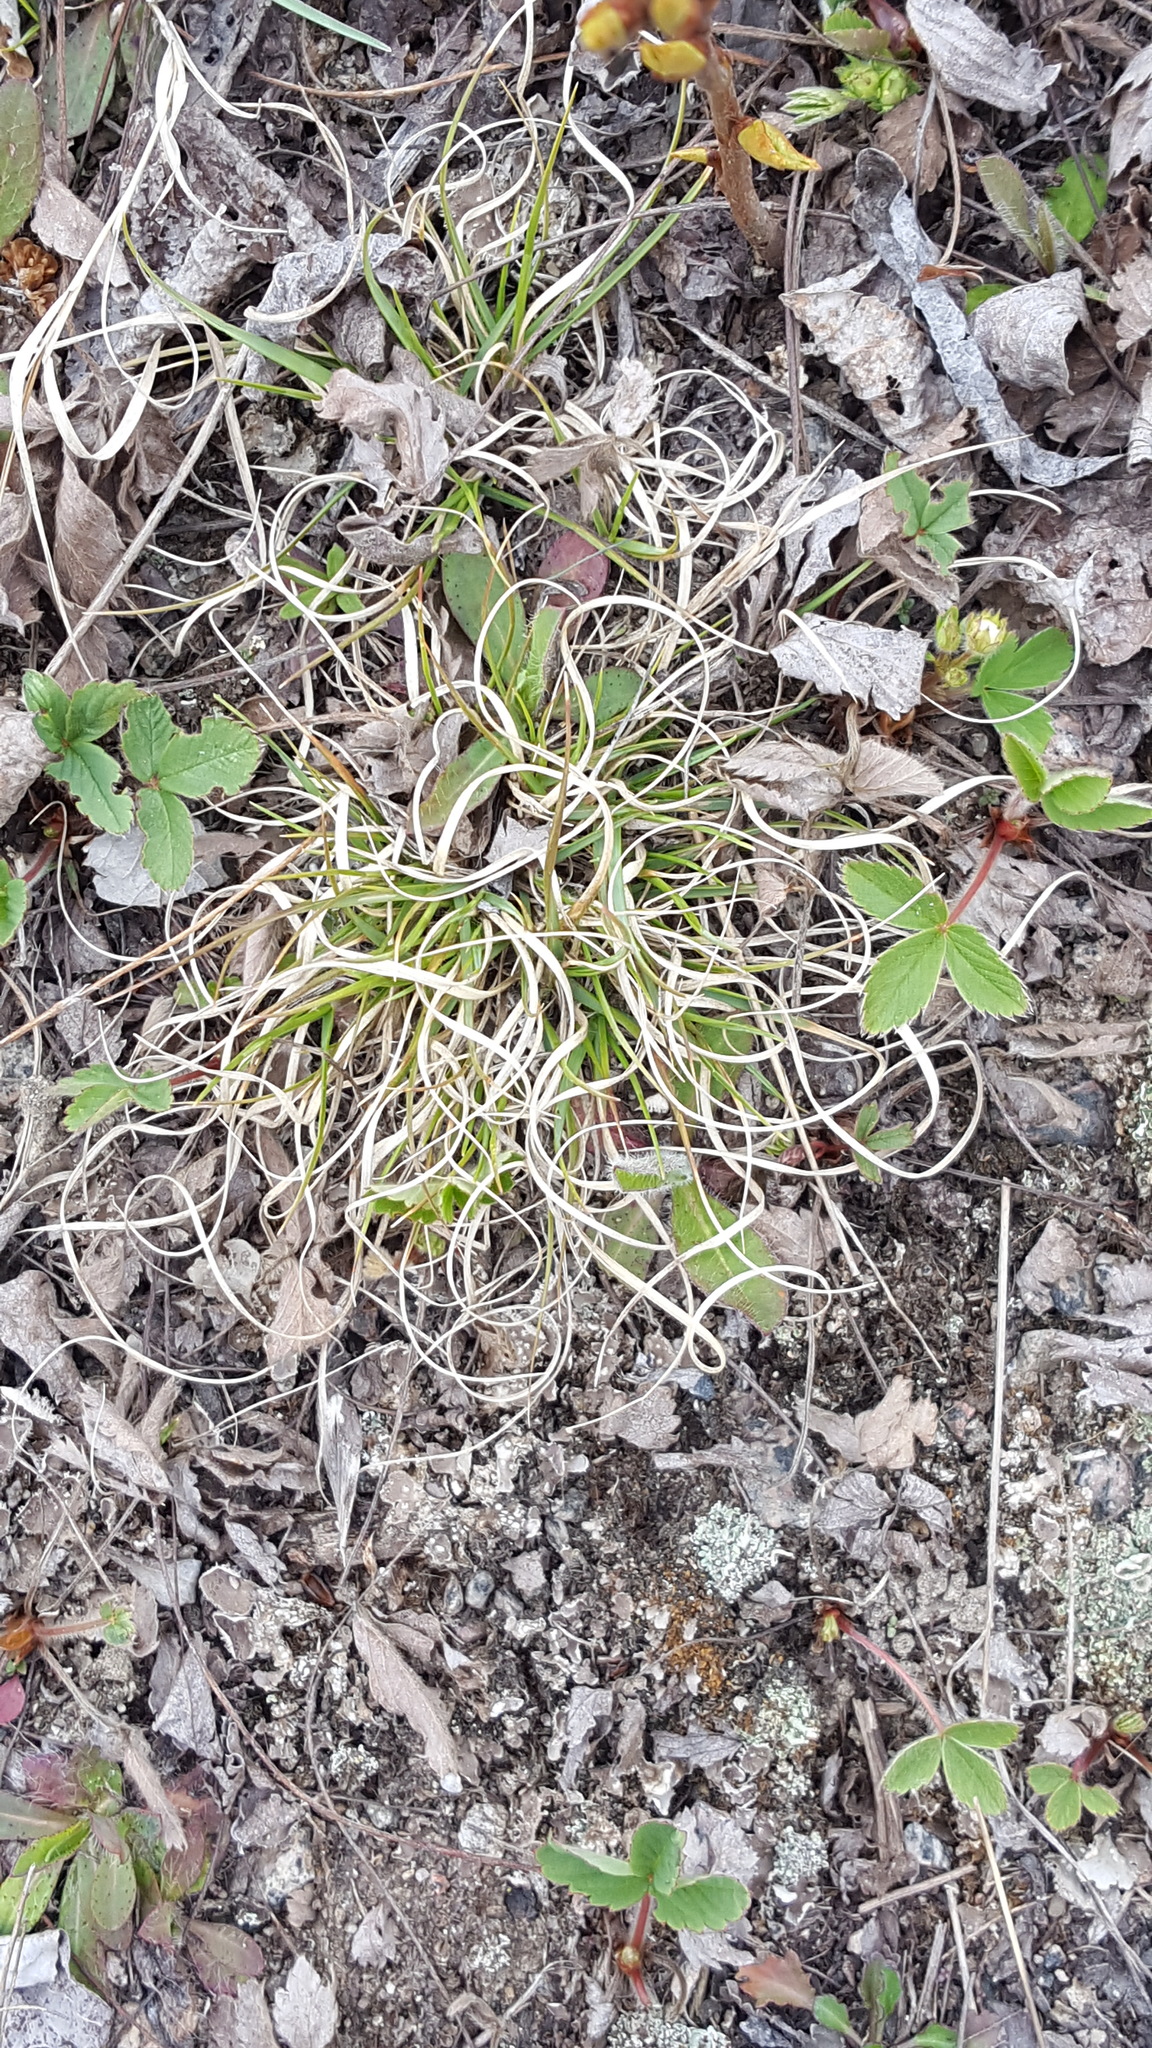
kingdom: Plantae
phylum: Tracheophyta
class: Liliopsida
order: Poales
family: Poaceae
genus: Danthonia
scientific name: Danthonia spicata
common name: Common wild oatgrass
